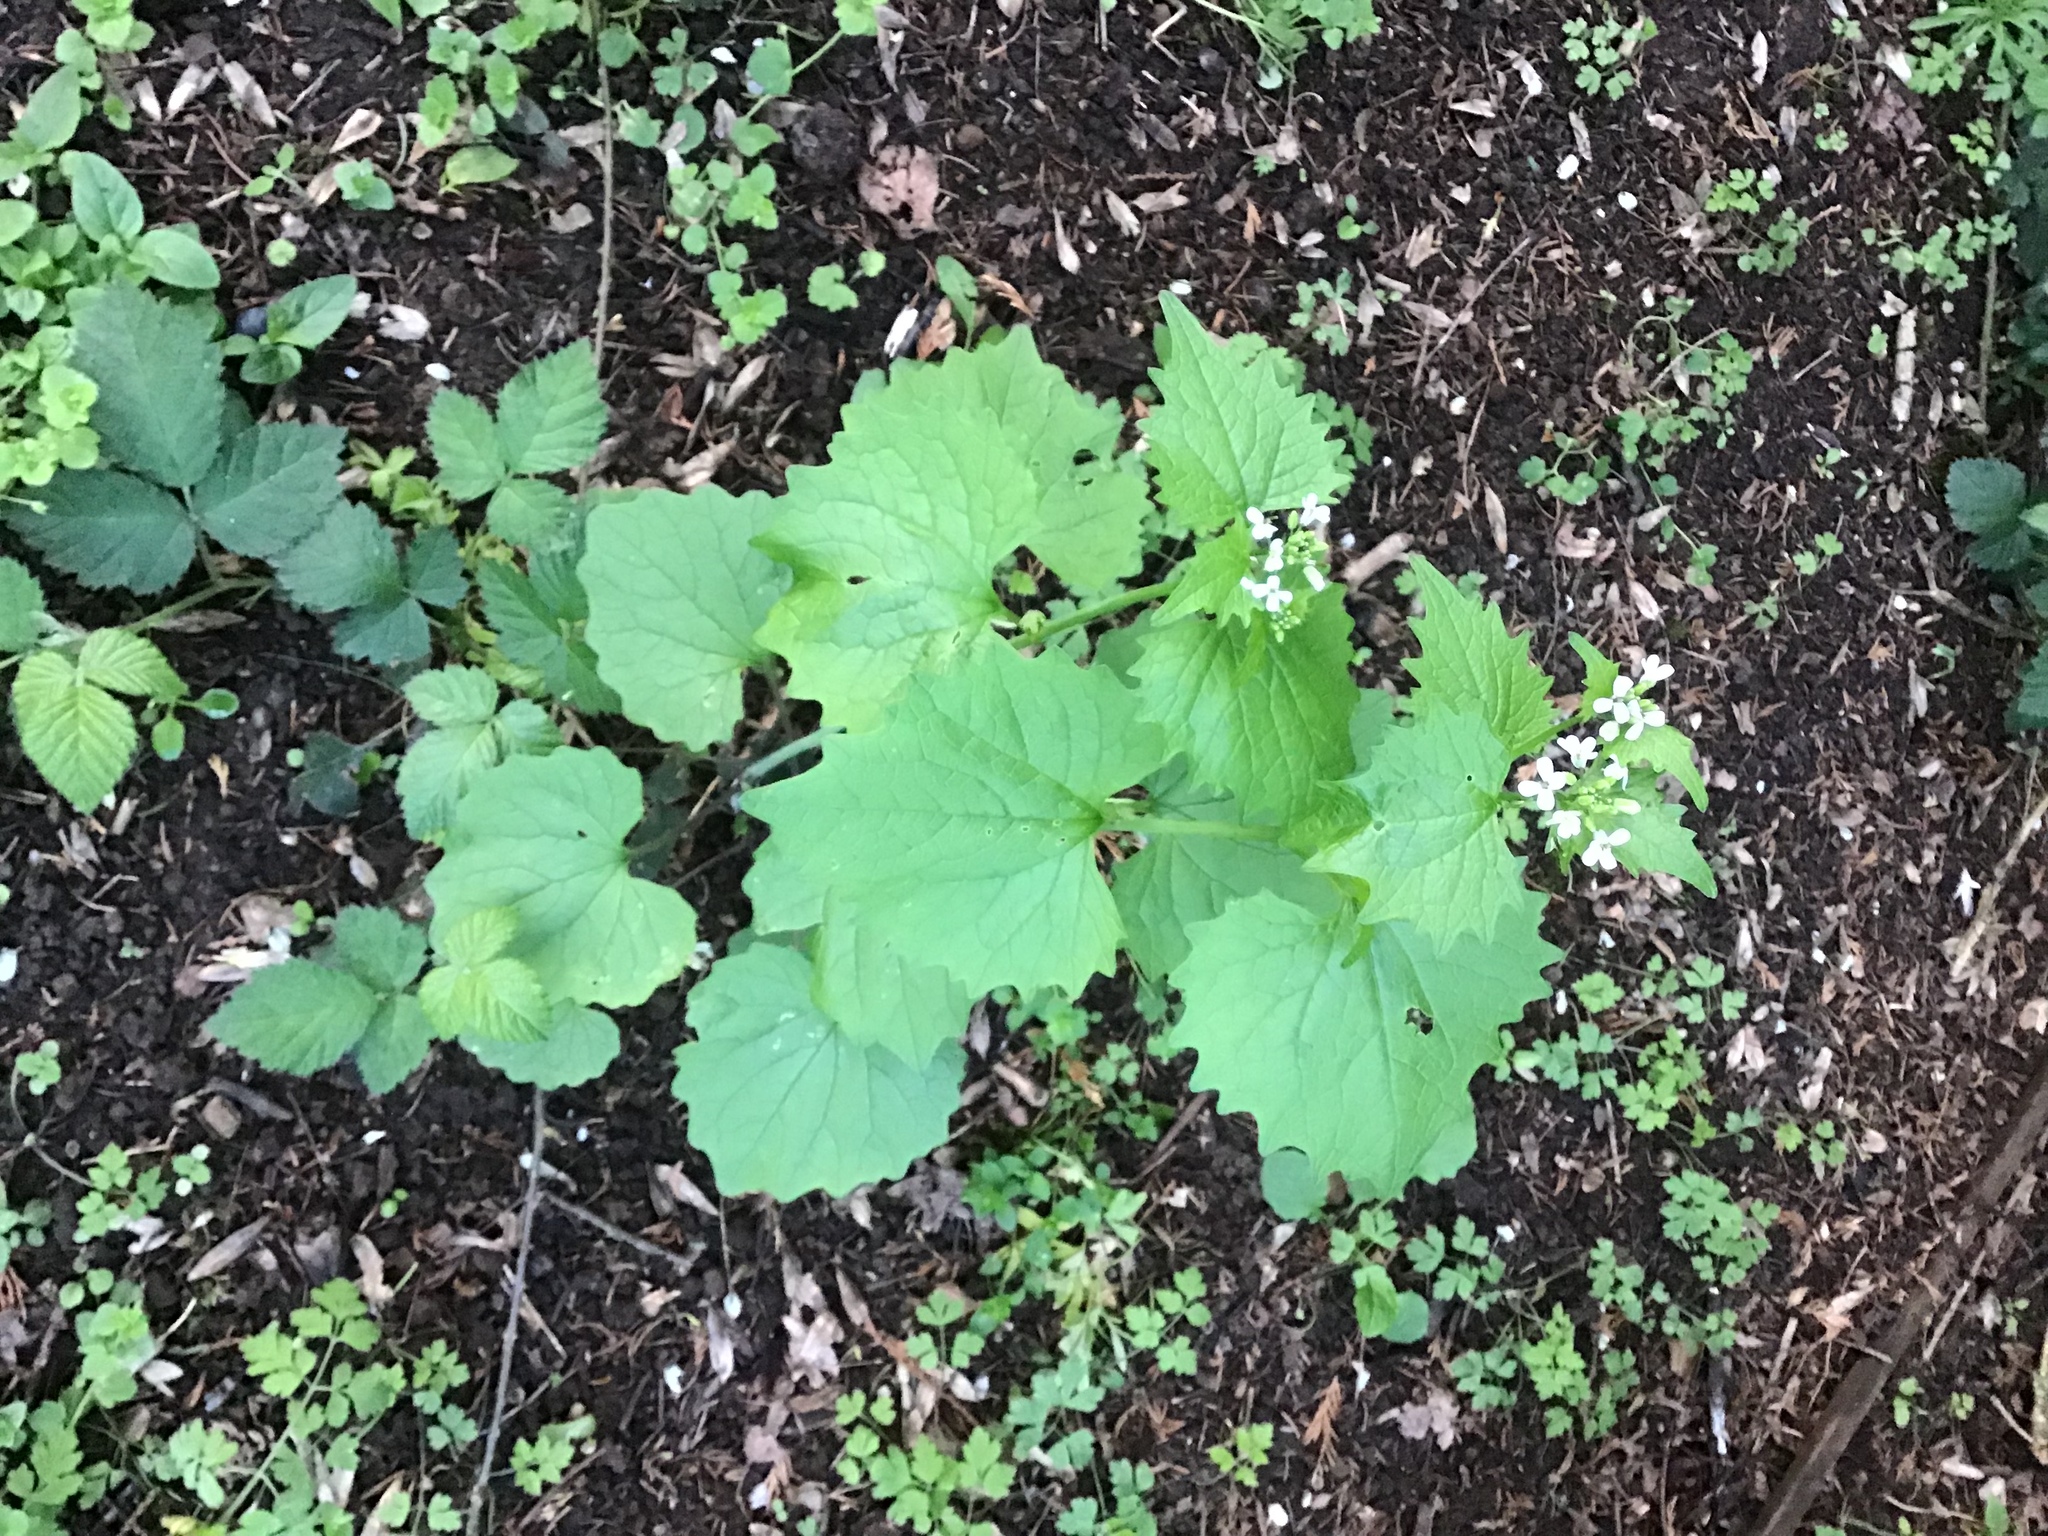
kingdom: Plantae
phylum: Tracheophyta
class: Magnoliopsida
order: Brassicales
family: Brassicaceae
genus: Alliaria
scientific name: Alliaria petiolata
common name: Garlic mustard
